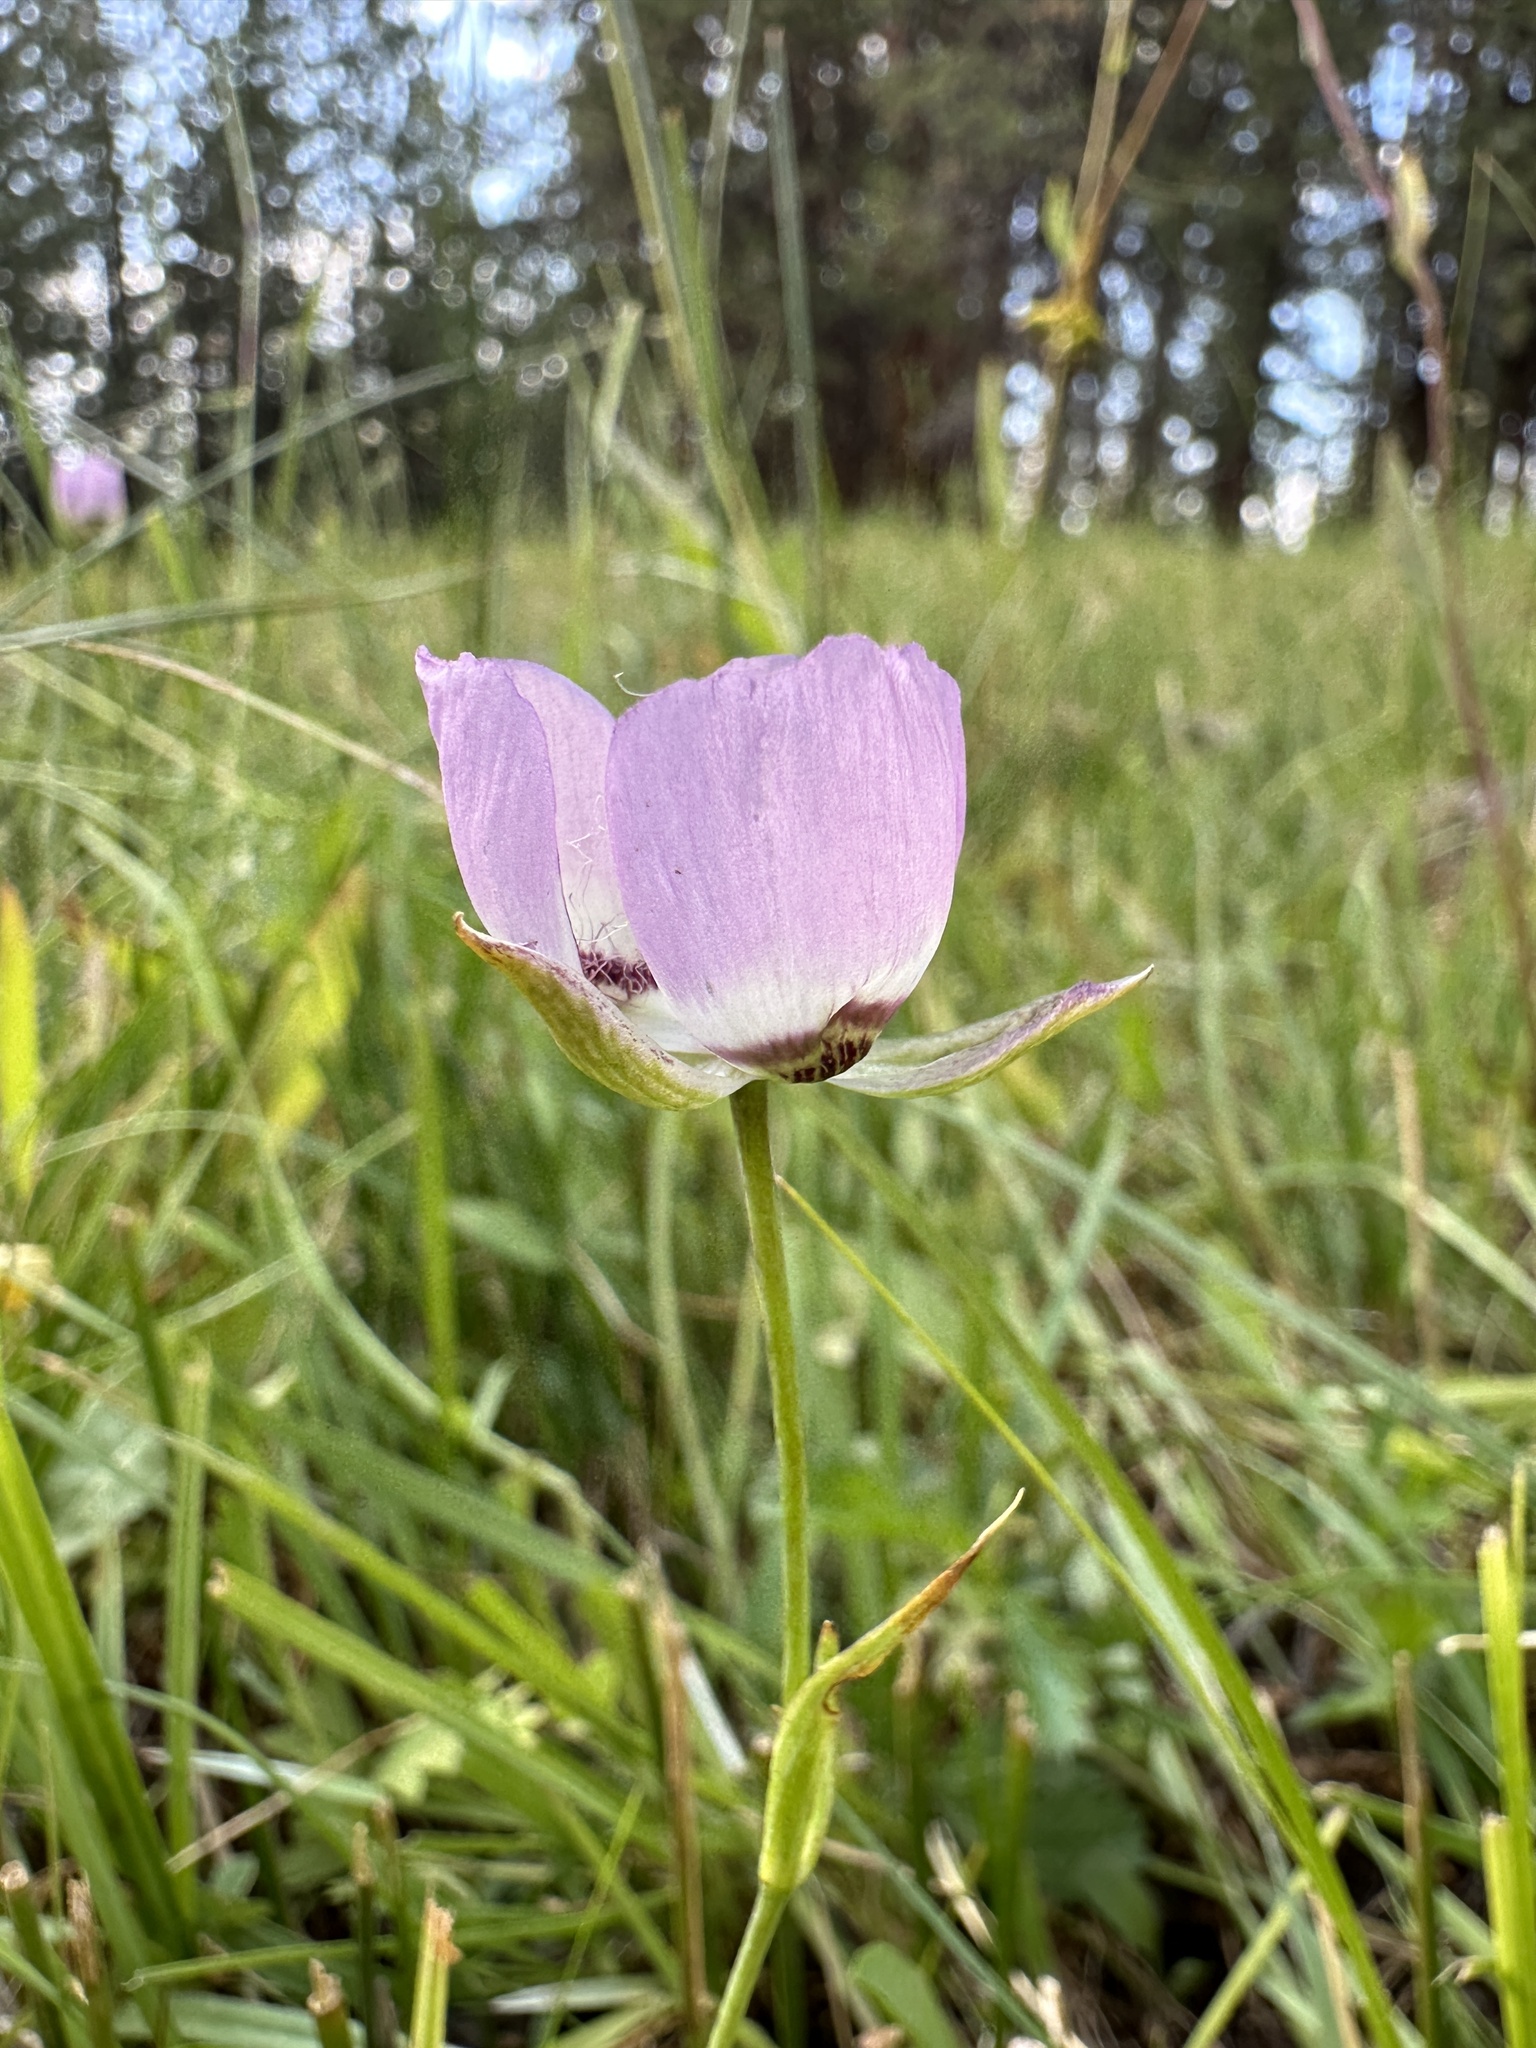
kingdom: Plantae
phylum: Tracheophyta
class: Liliopsida
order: Liliales
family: Liliaceae
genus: Calochortus
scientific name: Calochortus longibarbatus
